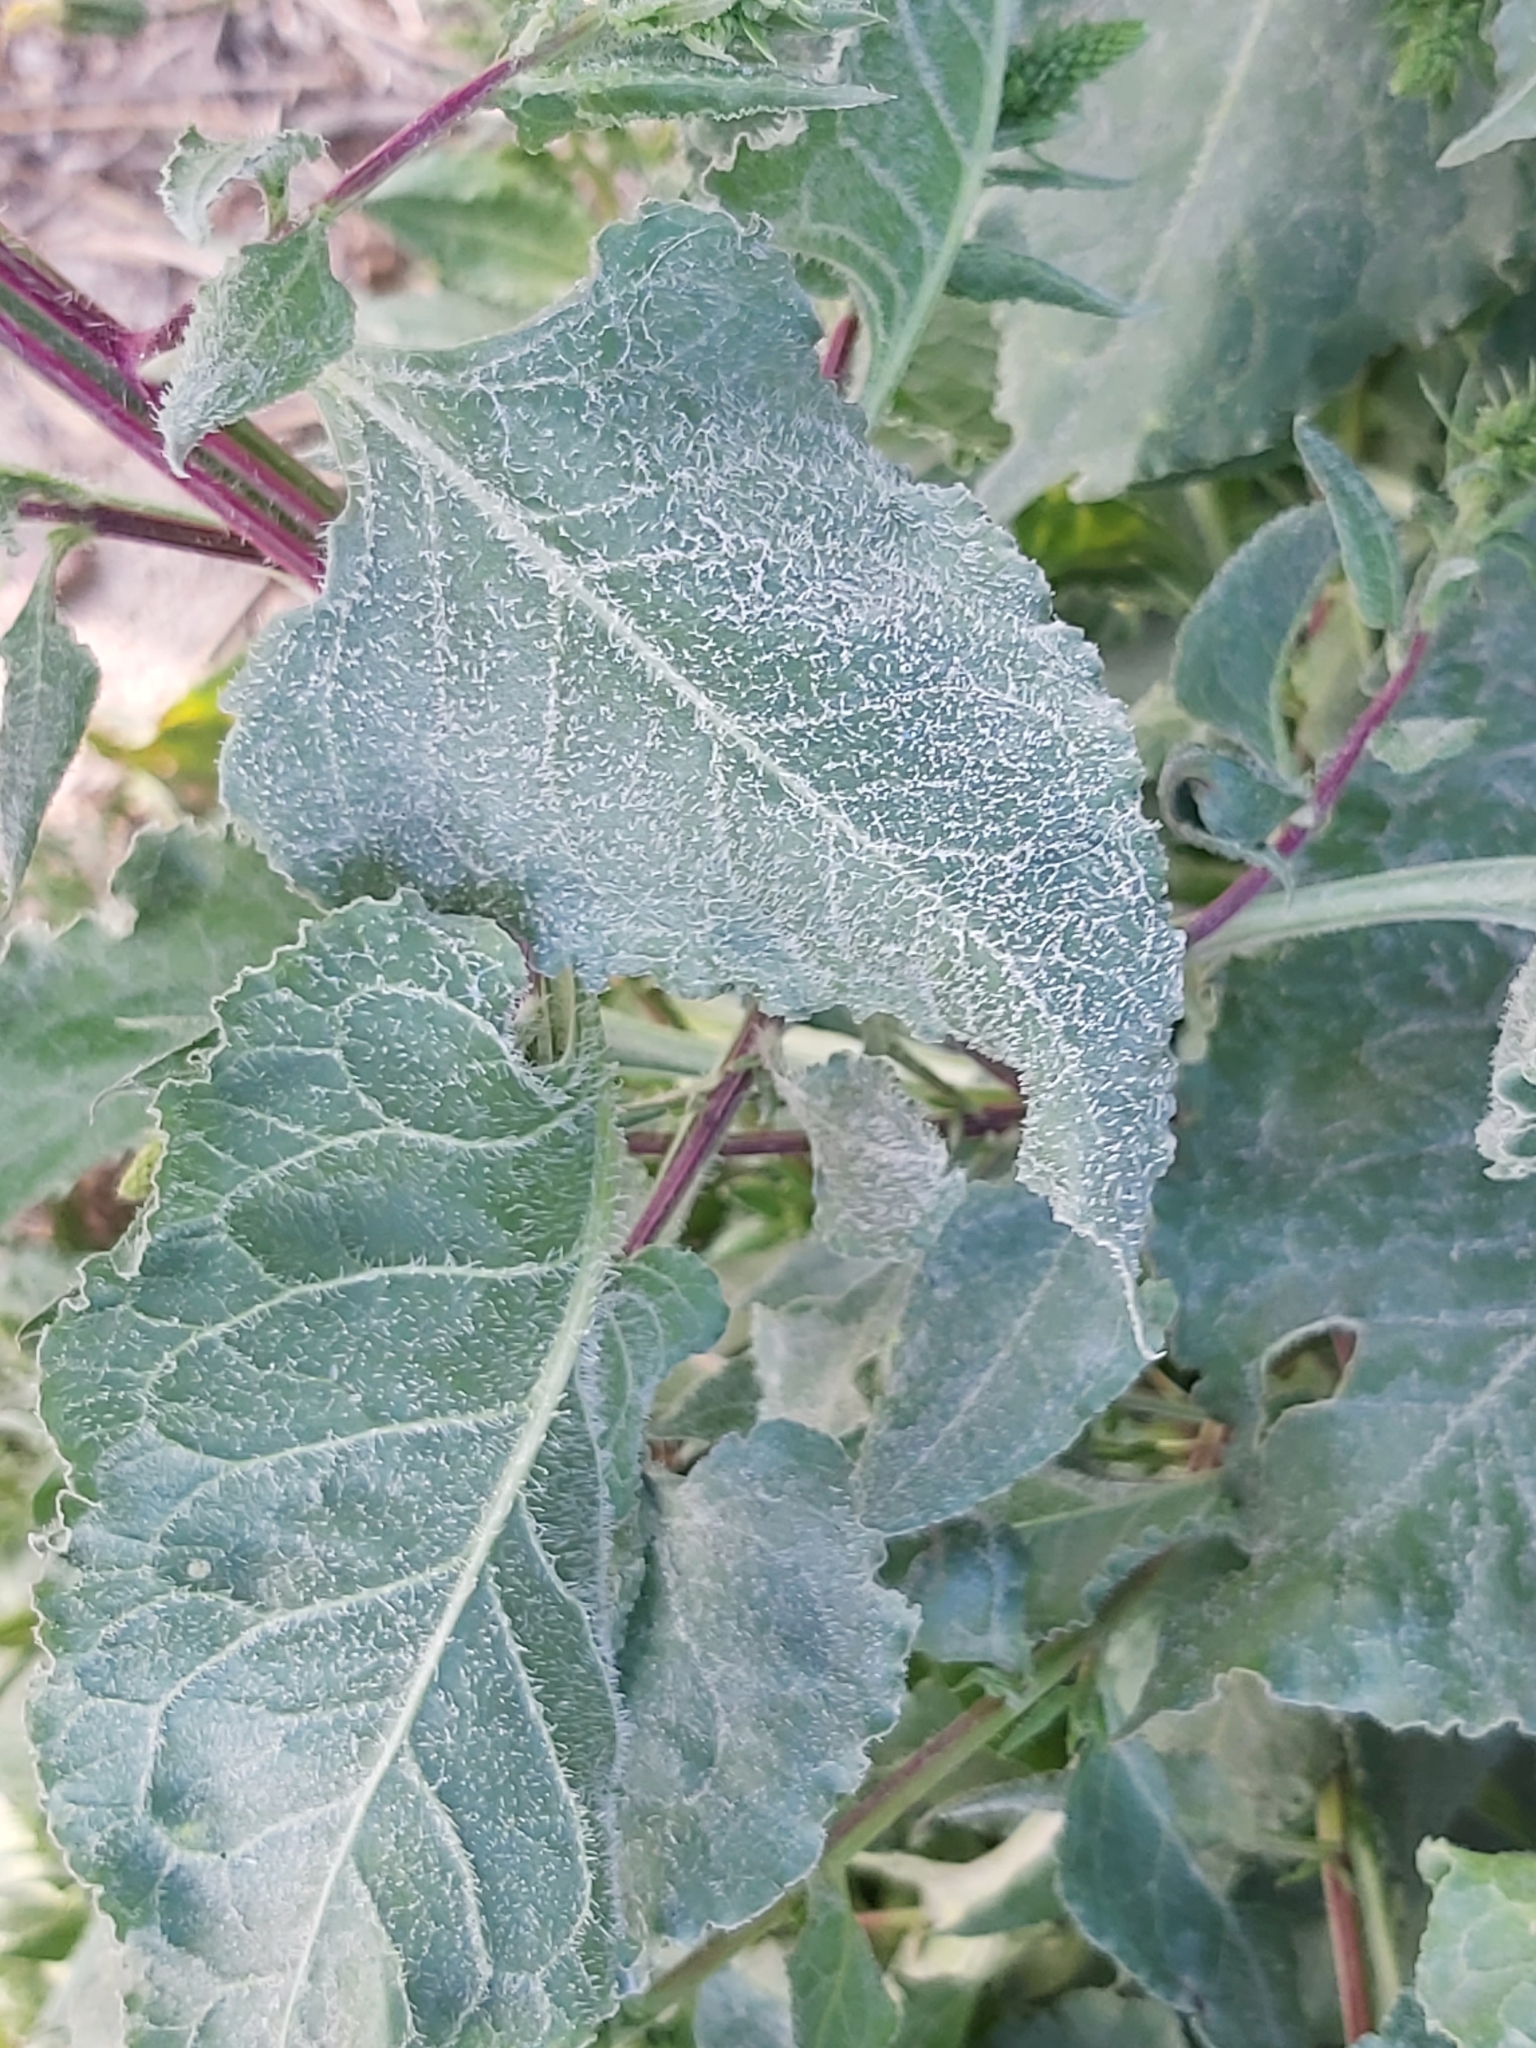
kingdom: Plantae
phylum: Tracheophyta
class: Magnoliopsida
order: Caryophyllales
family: Amaranthaceae
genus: Beta
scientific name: Beta vulgaris
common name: Beet
